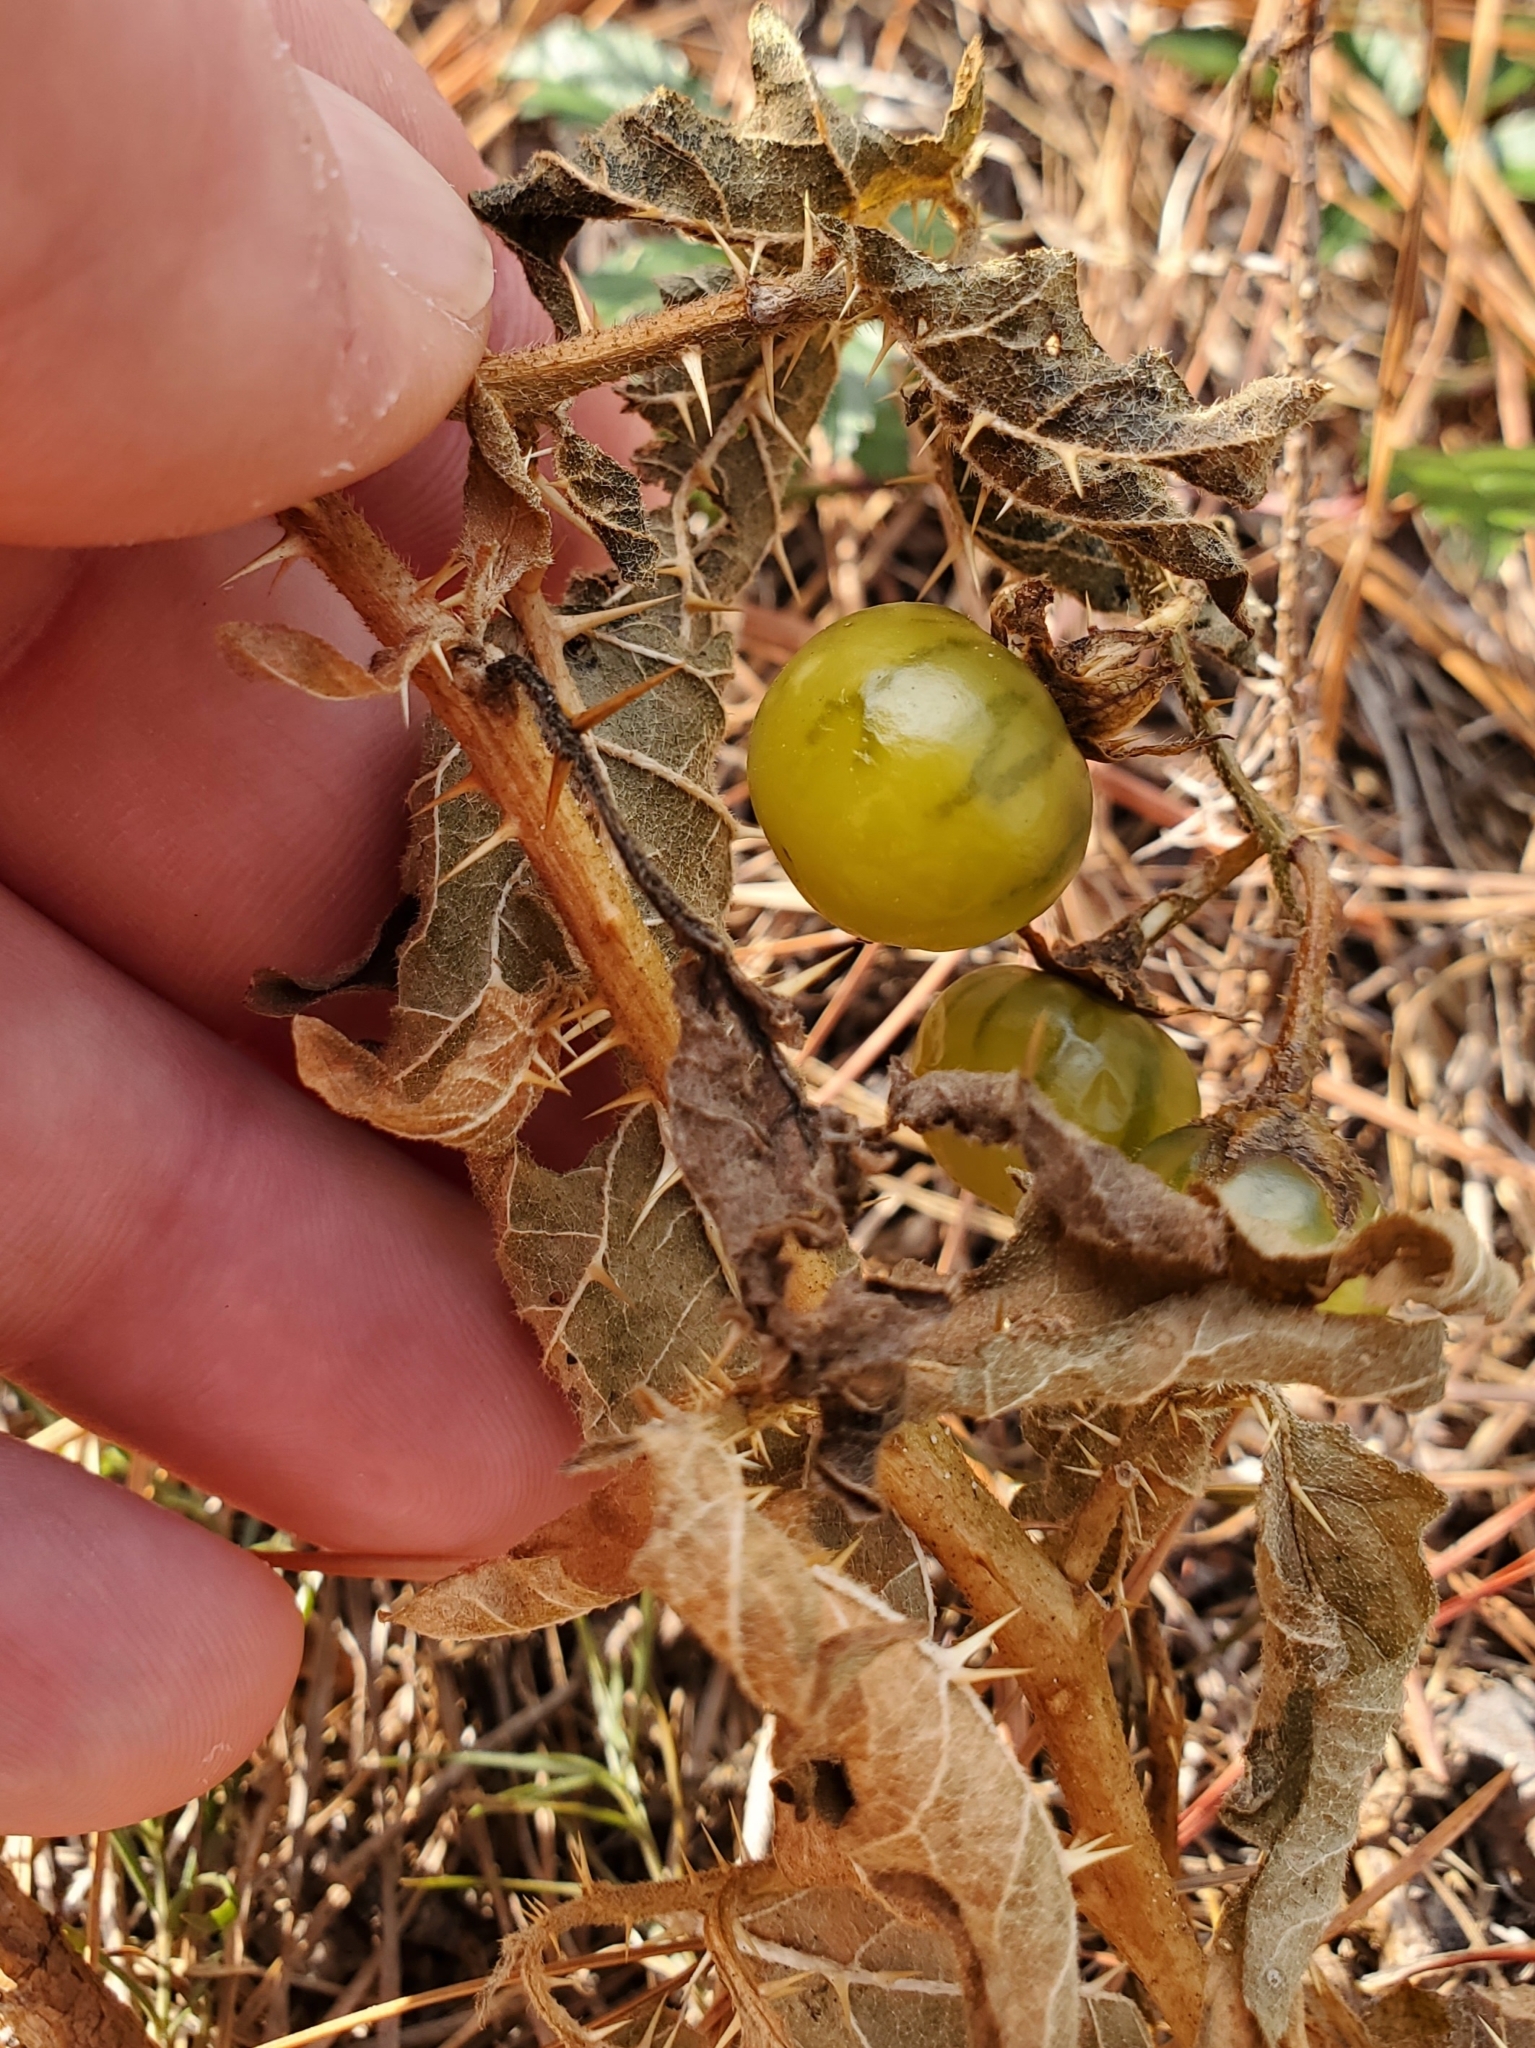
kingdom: Plantae
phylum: Tracheophyta
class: Magnoliopsida
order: Solanales
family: Solanaceae
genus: Solanum
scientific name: Solanum carolinense
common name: Horse-nettle
